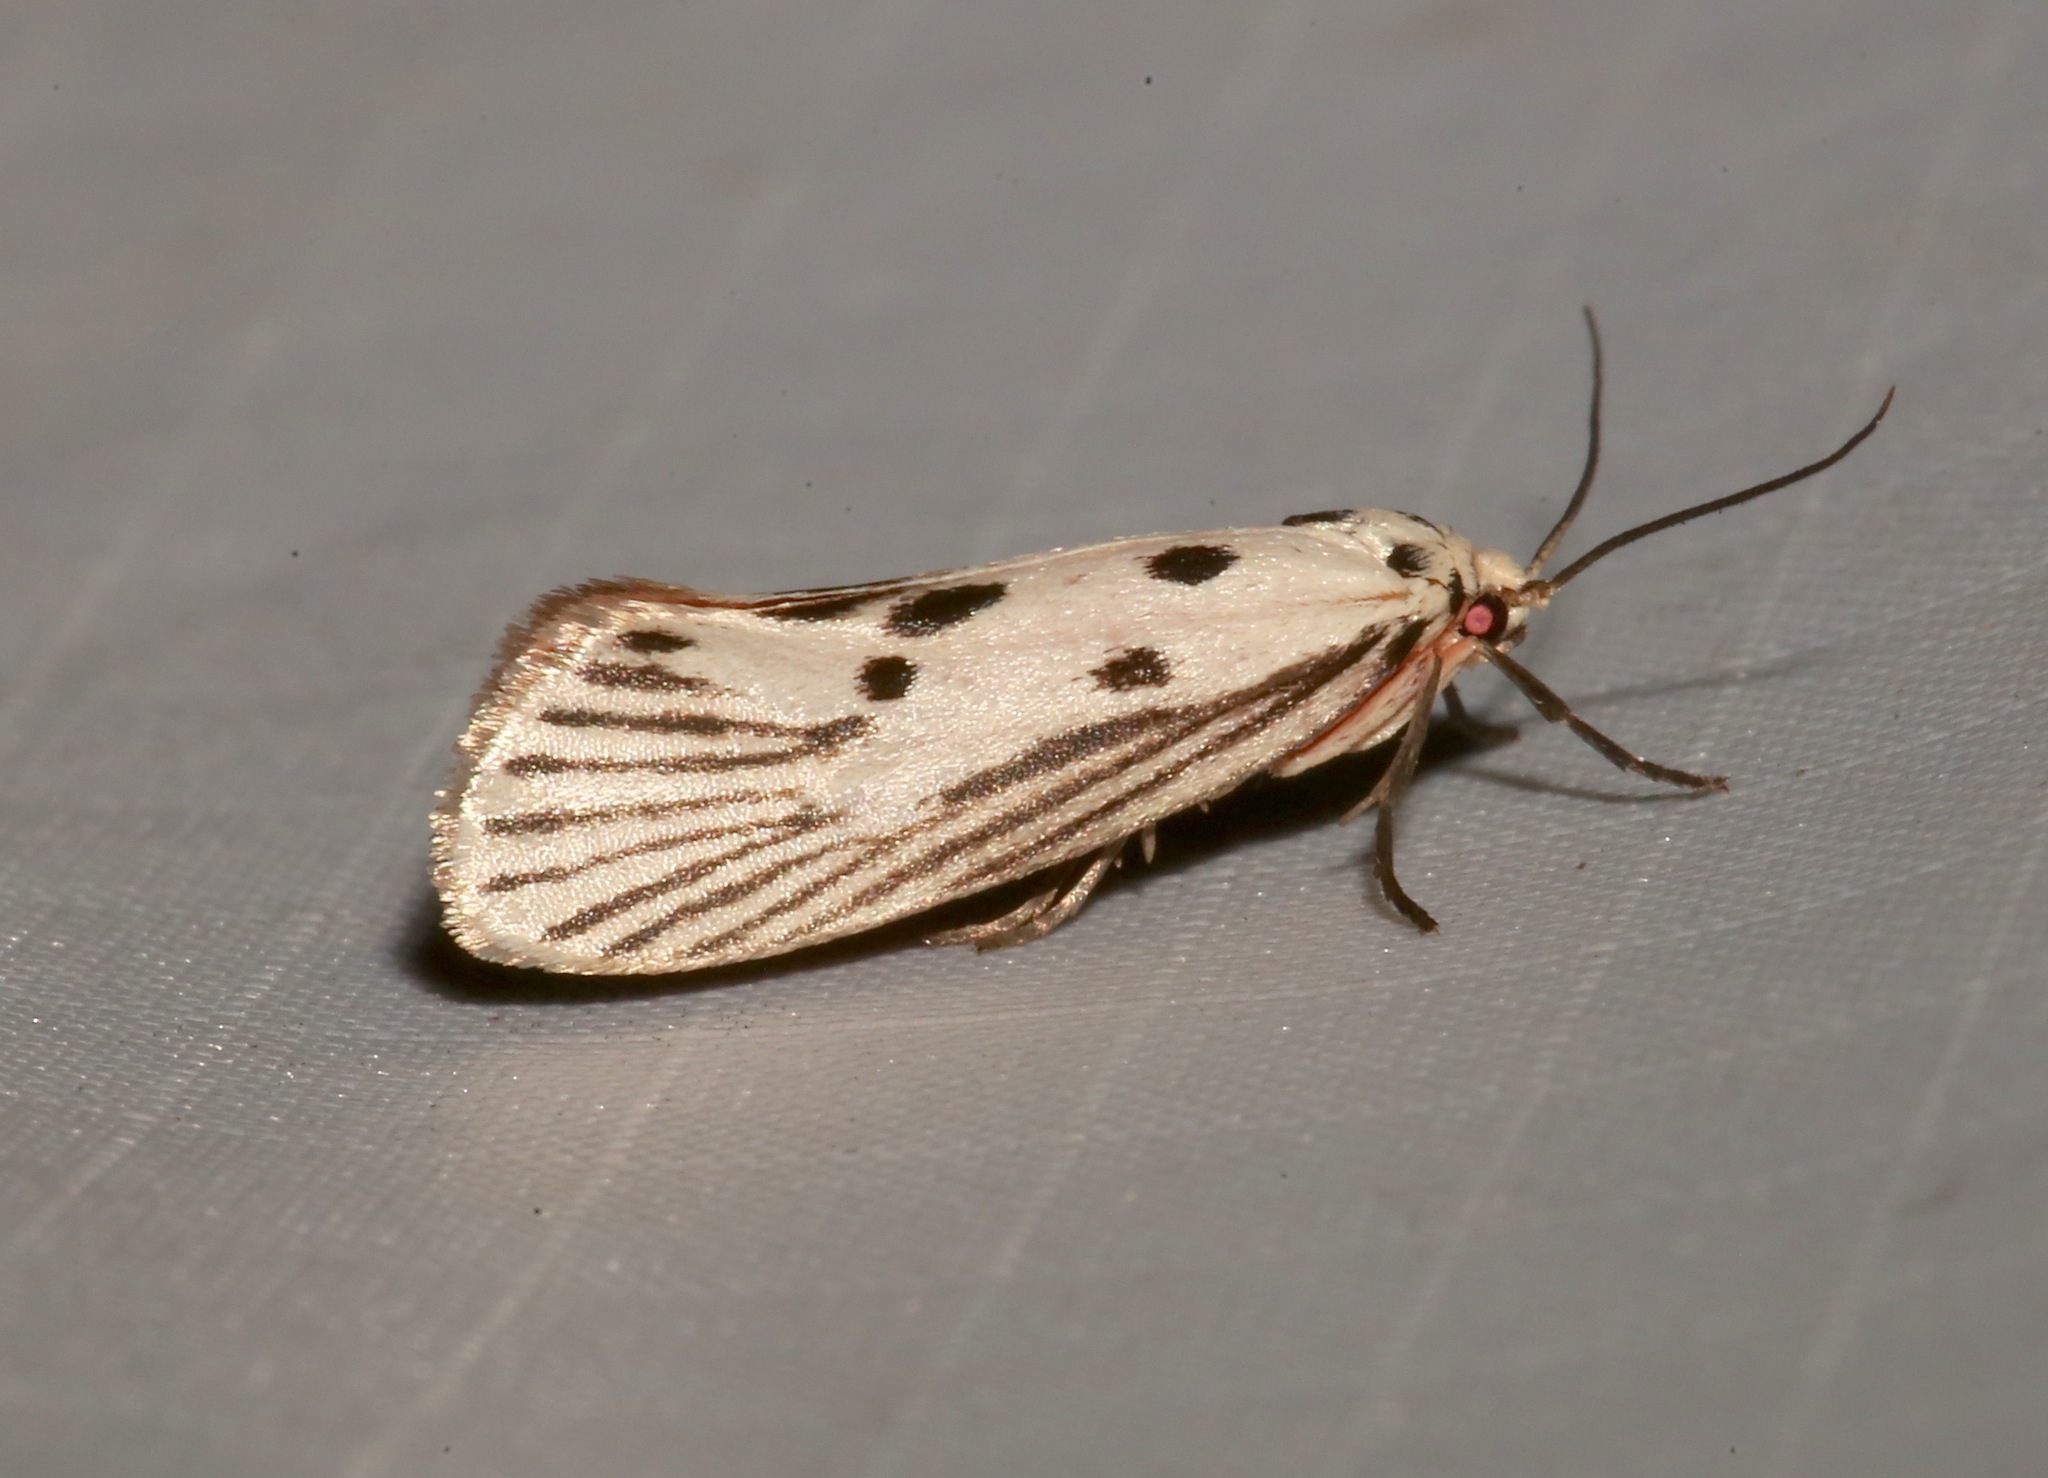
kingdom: Animalia
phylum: Arthropoda
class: Insecta
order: Lepidoptera
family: Lacturidae
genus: Lactura
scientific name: Lactura
